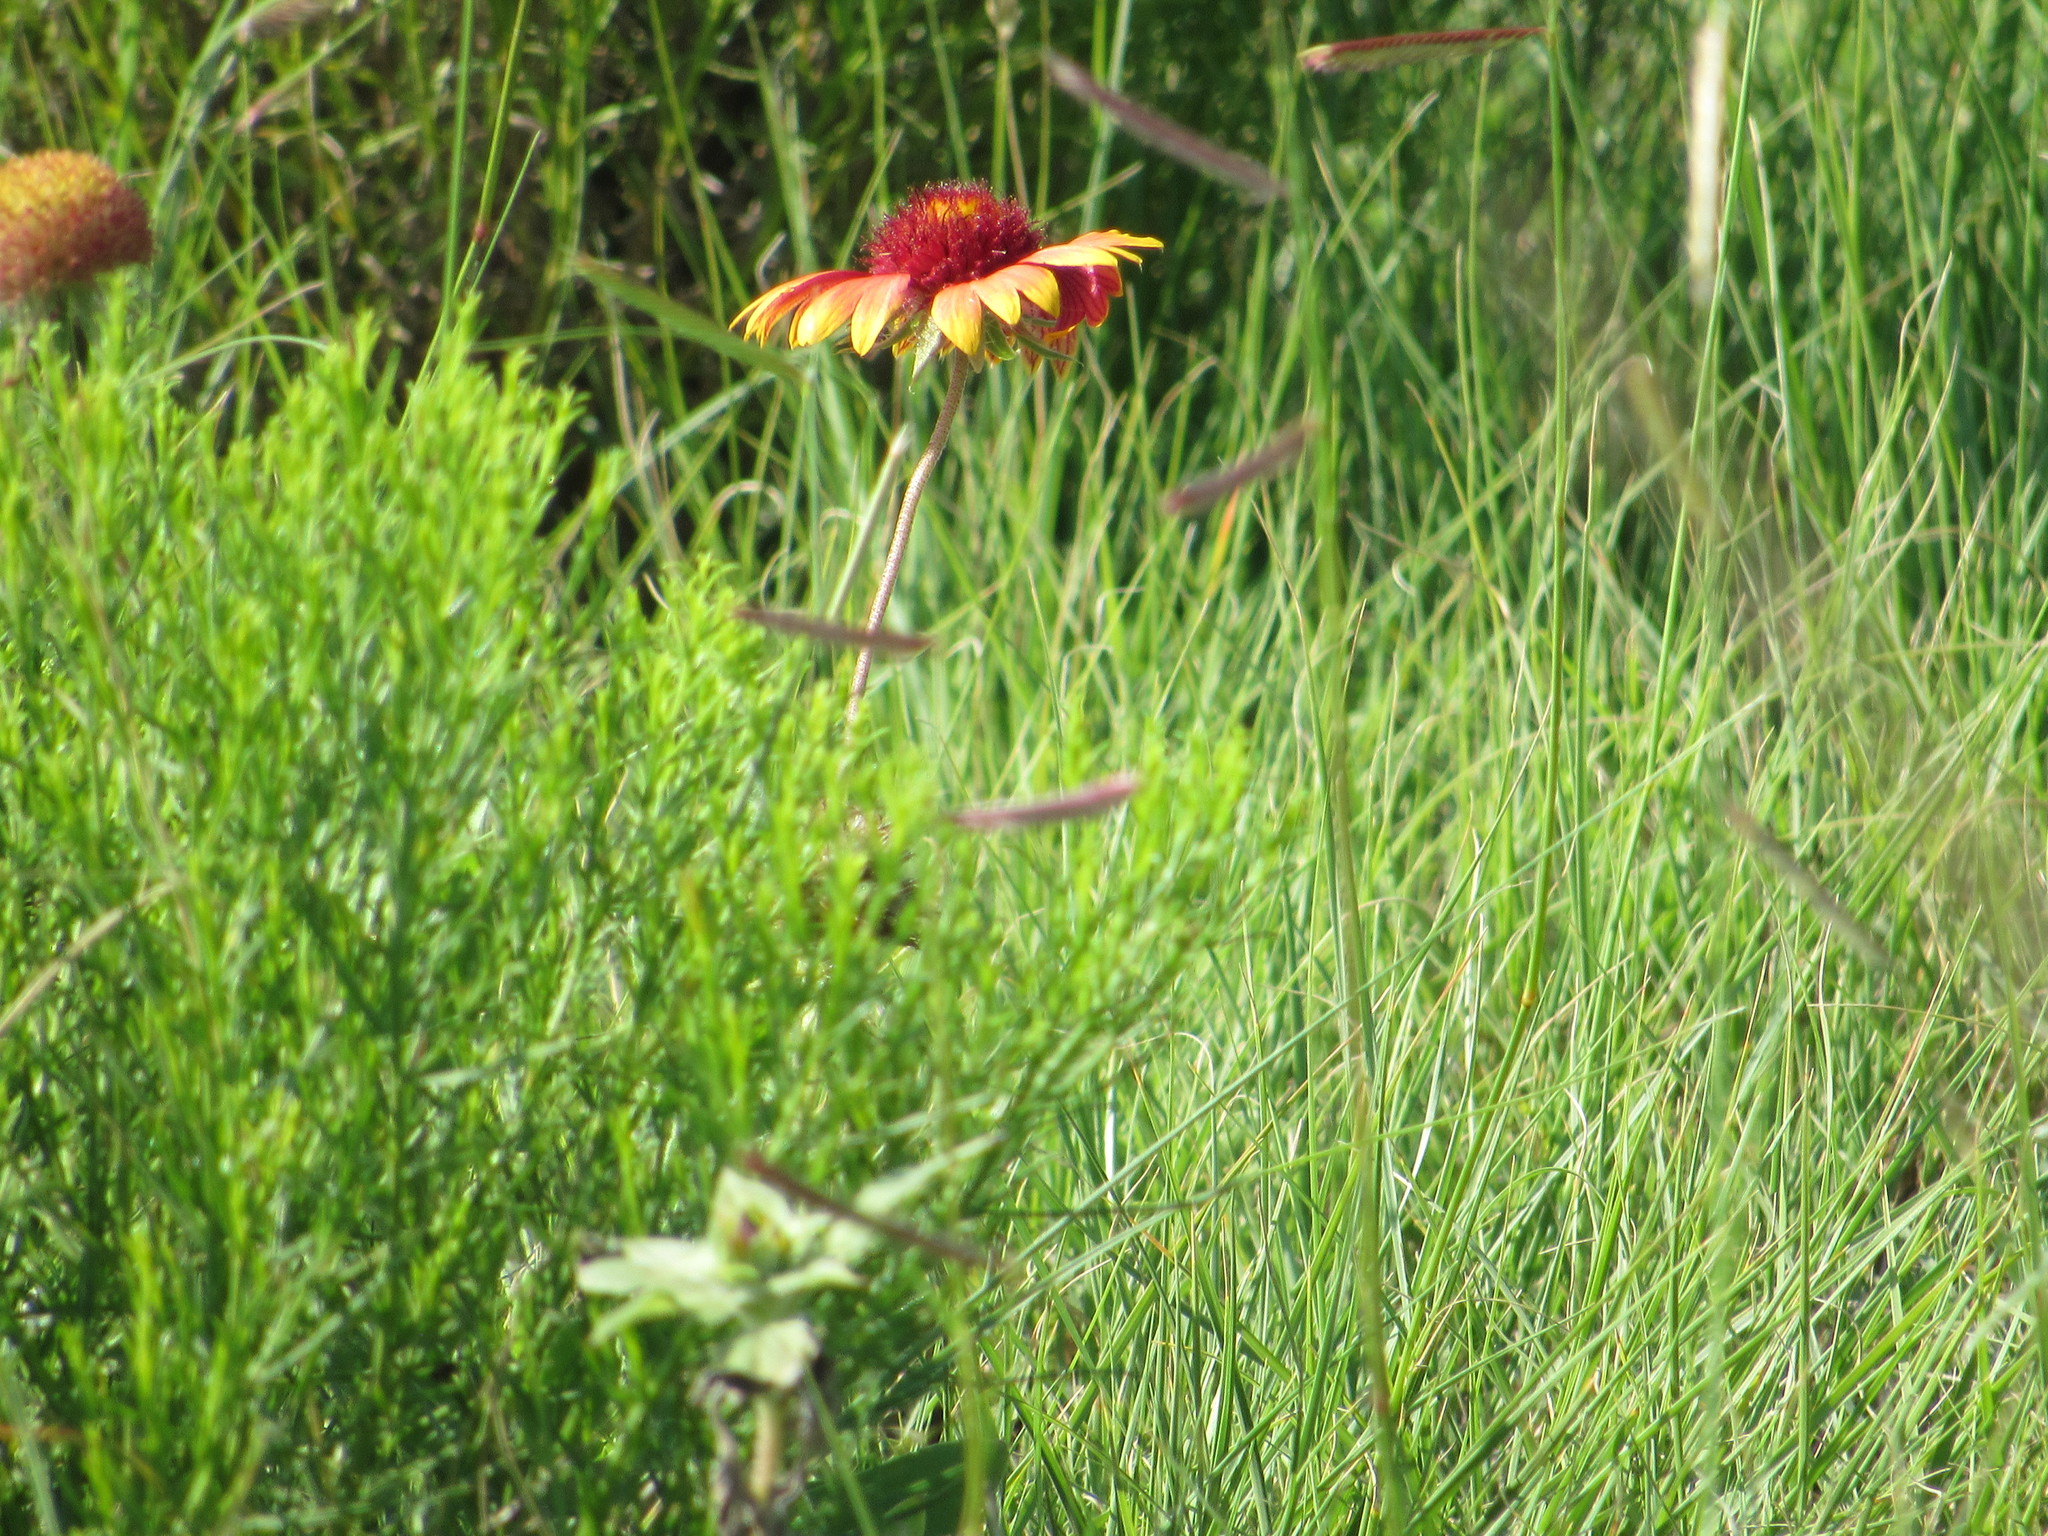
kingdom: Plantae
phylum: Tracheophyta
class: Magnoliopsida
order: Asterales
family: Asteraceae
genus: Gaillardia
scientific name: Gaillardia pulchella
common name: Firewheel
